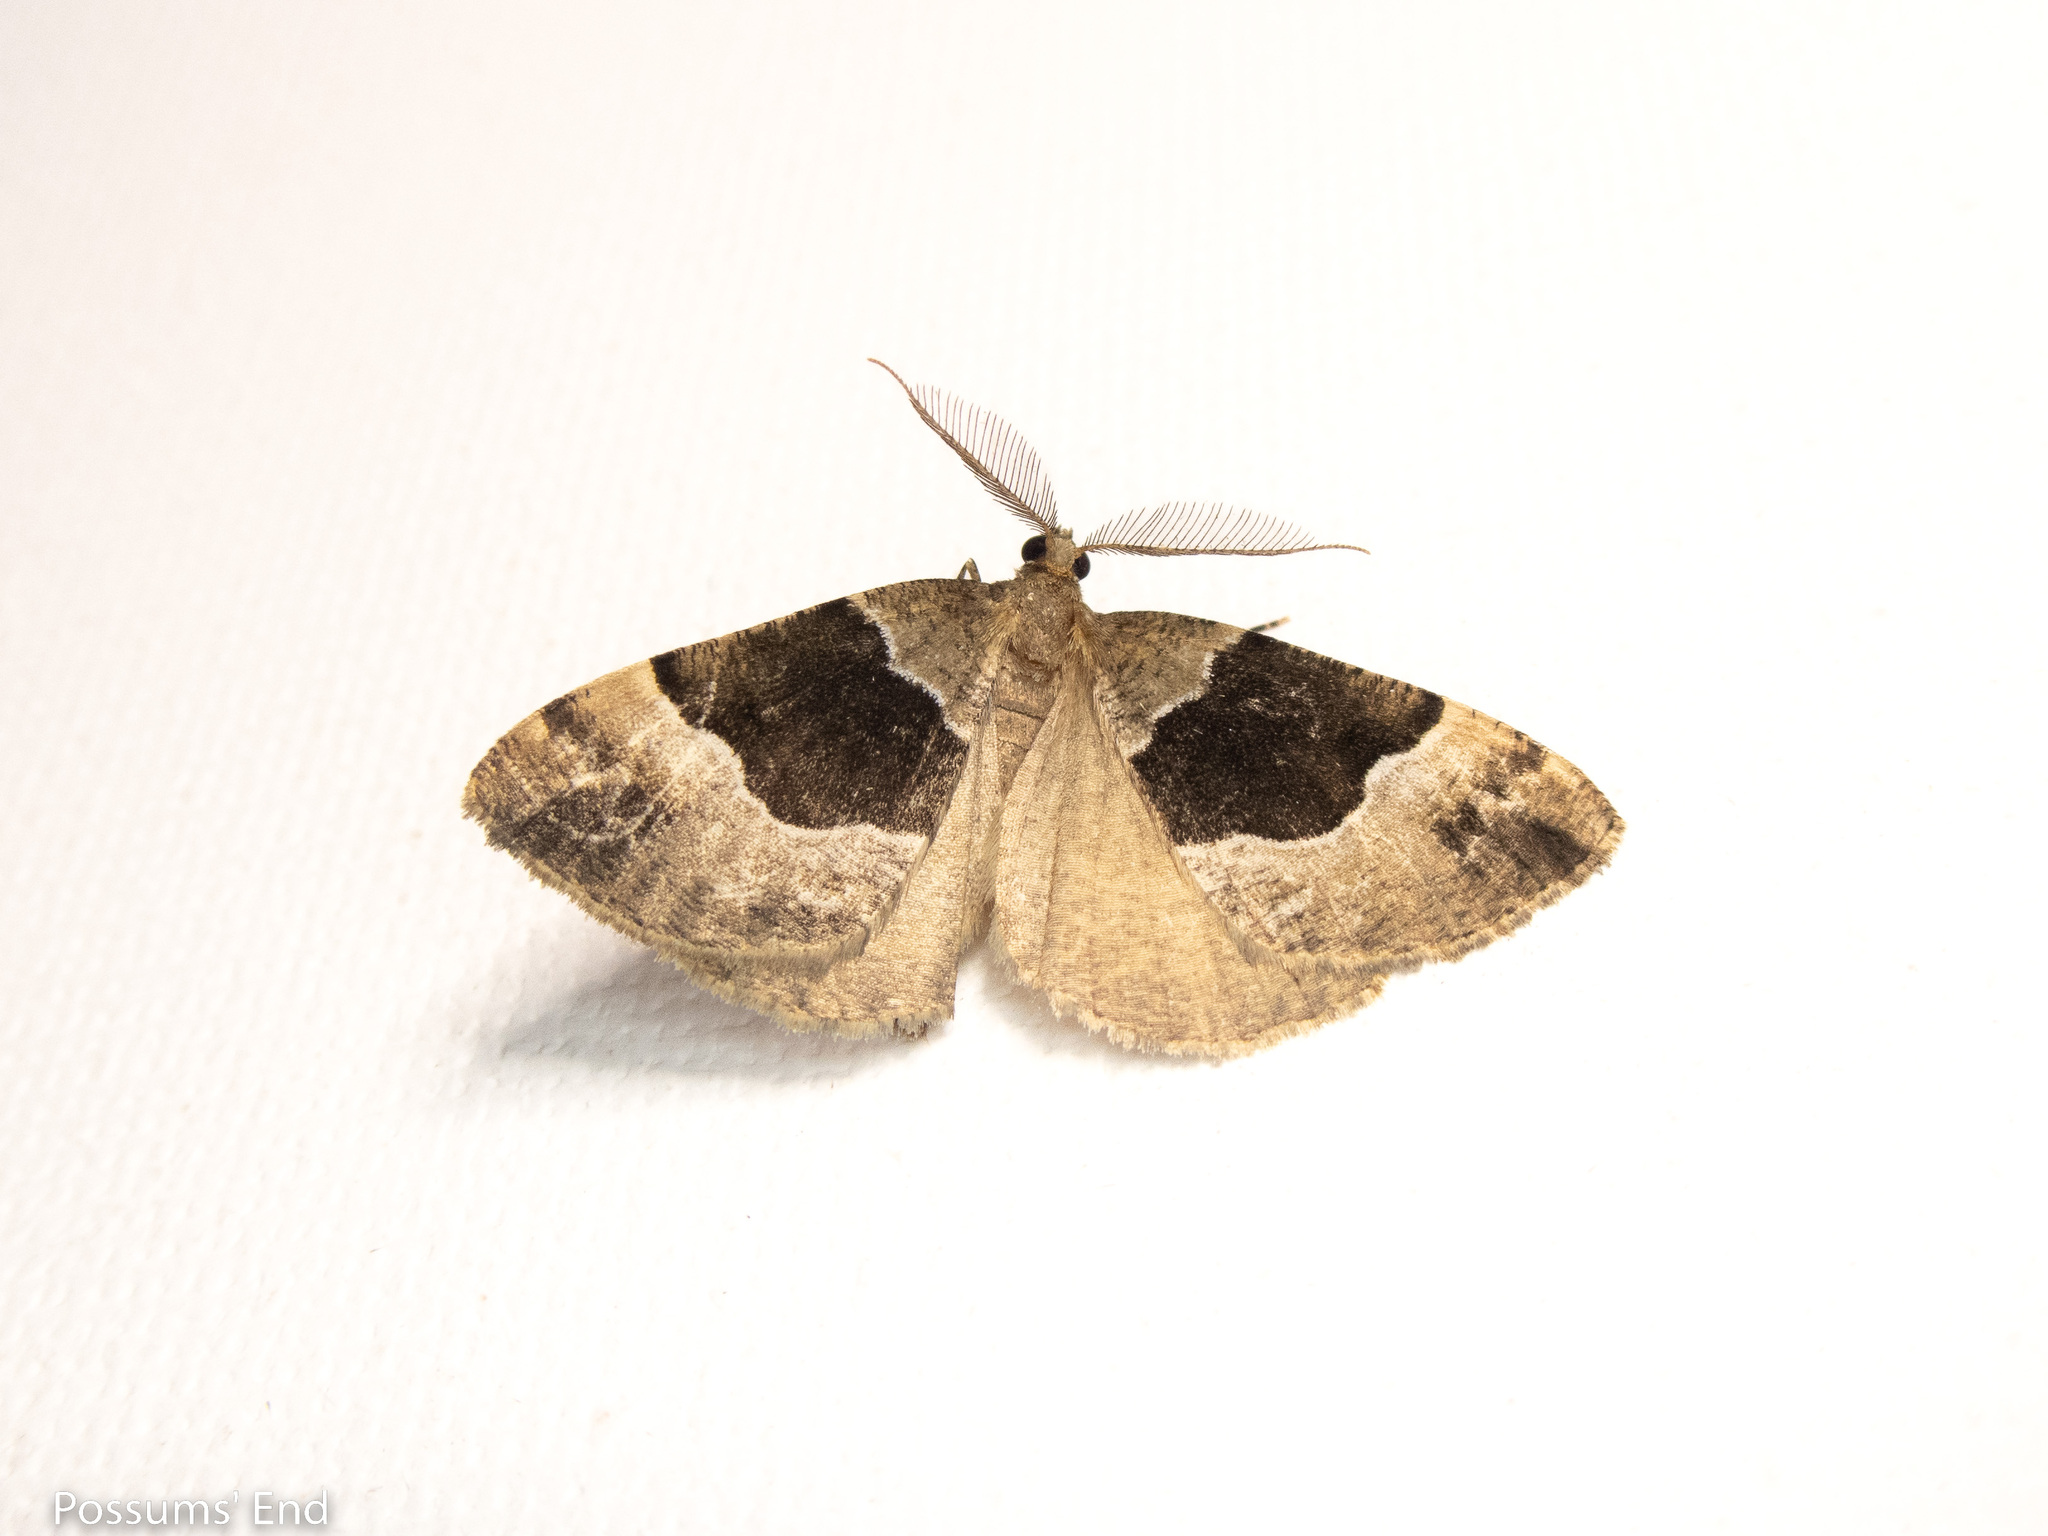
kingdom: Animalia
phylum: Arthropoda
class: Insecta
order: Lepidoptera
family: Geometridae
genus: Pseudocoremia
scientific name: Pseudocoremia
